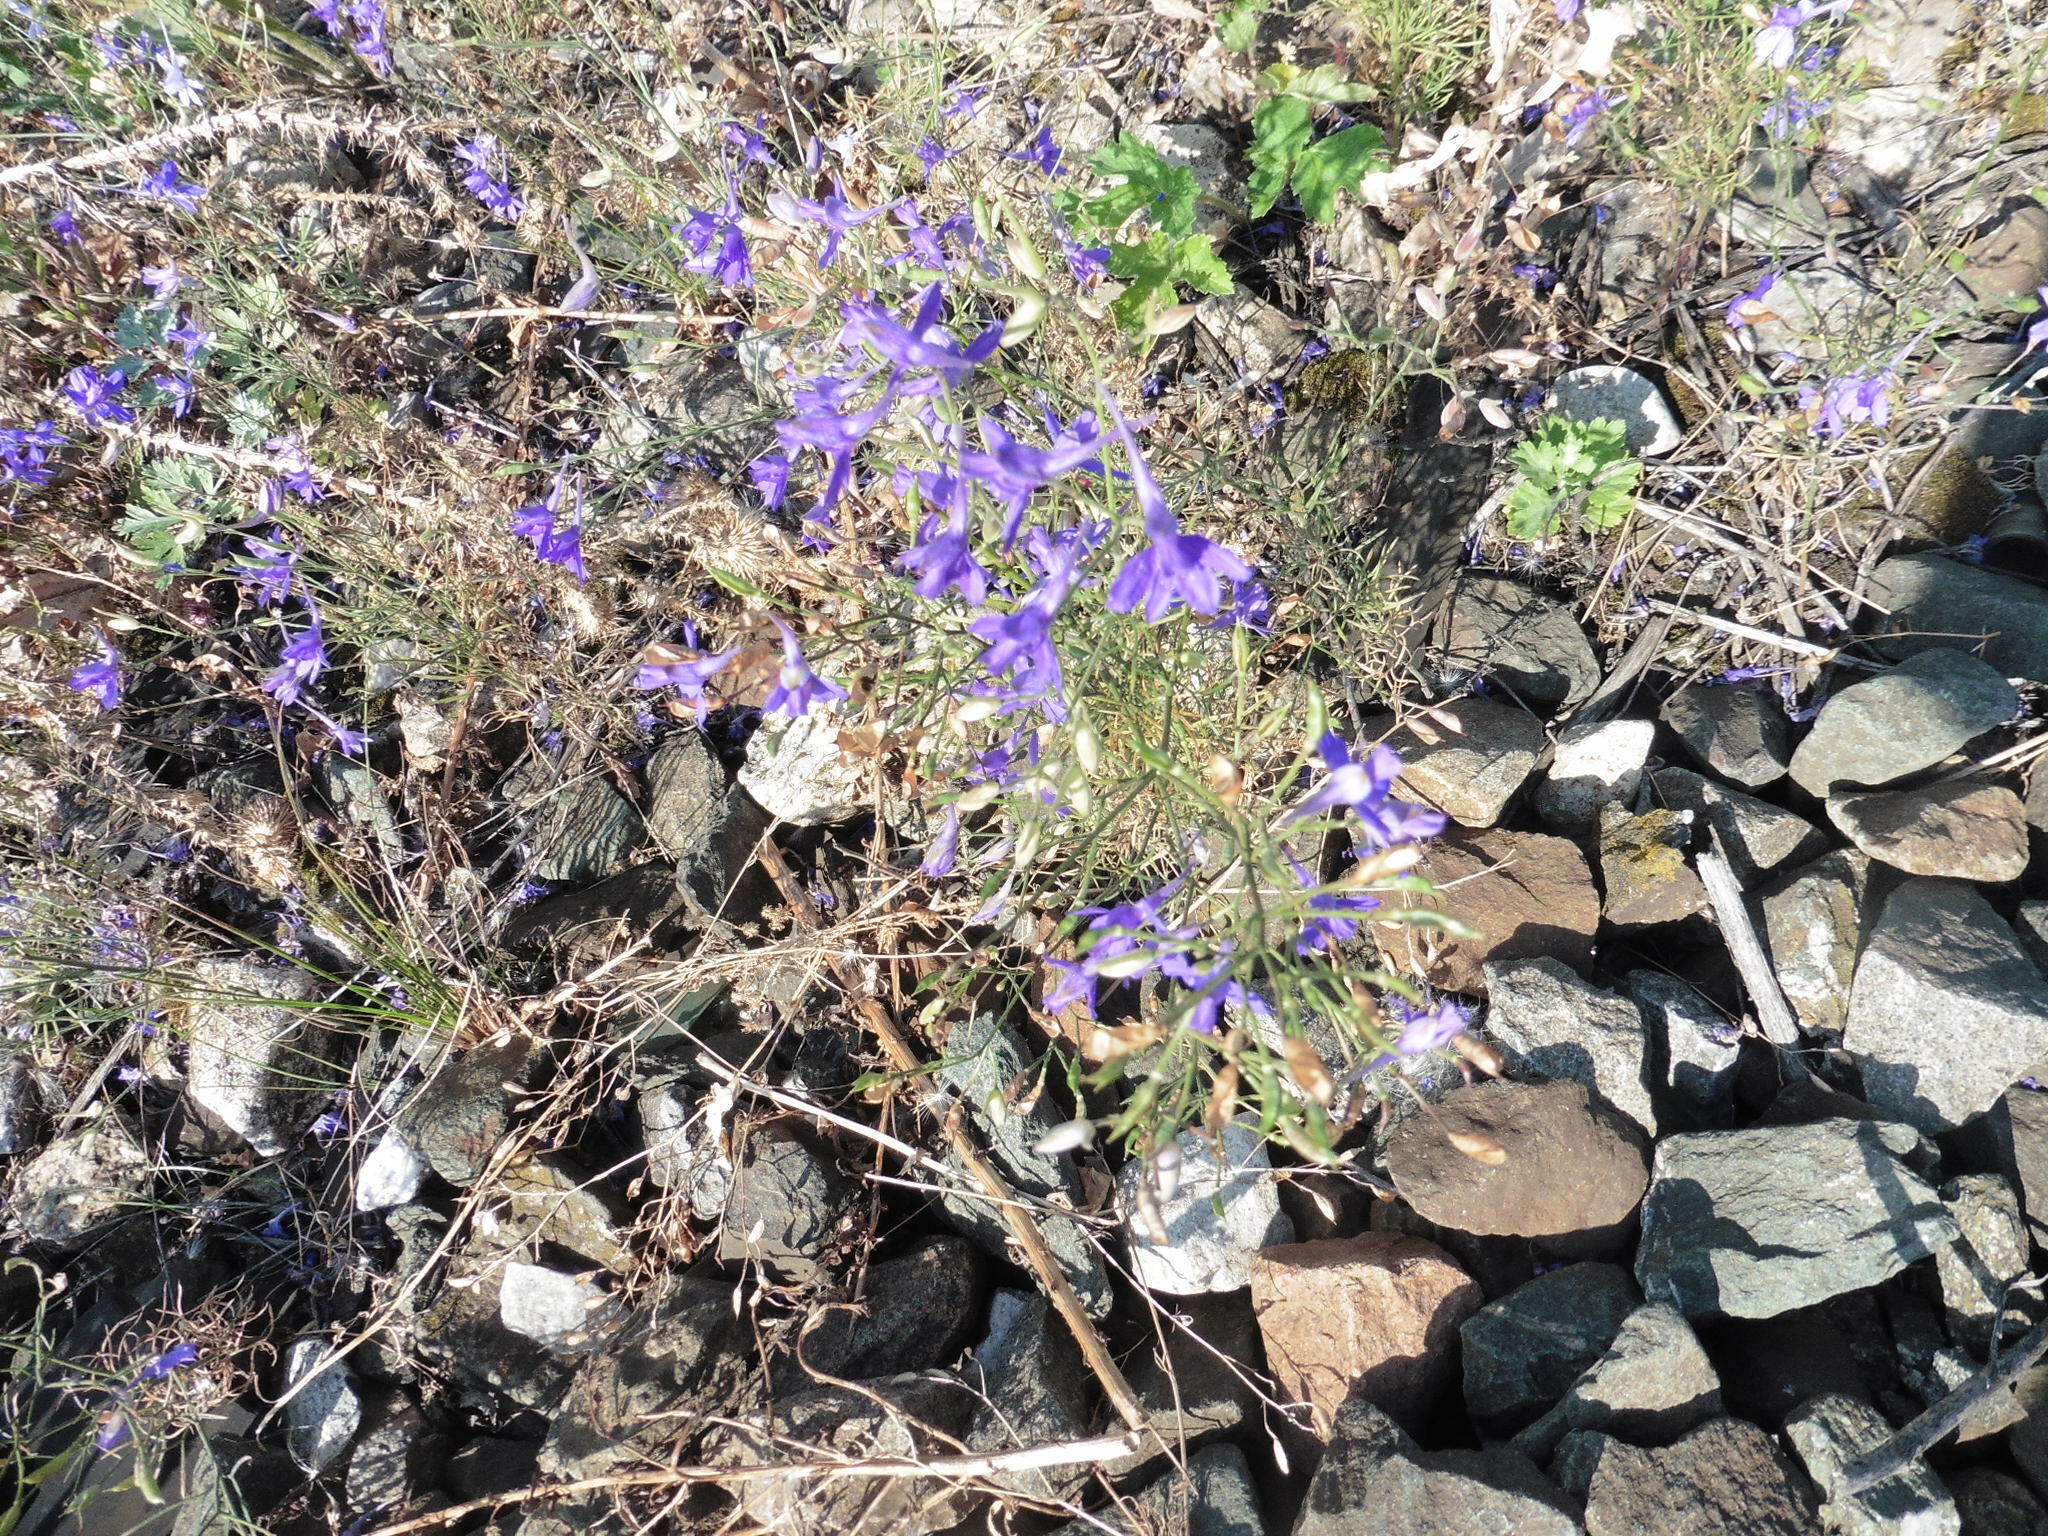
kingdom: Plantae
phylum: Tracheophyta
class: Magnoliopsida
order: Ranunculales
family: Ranunculaceae
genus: Delphinium
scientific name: Delphinium consolida
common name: Branching larkspur
